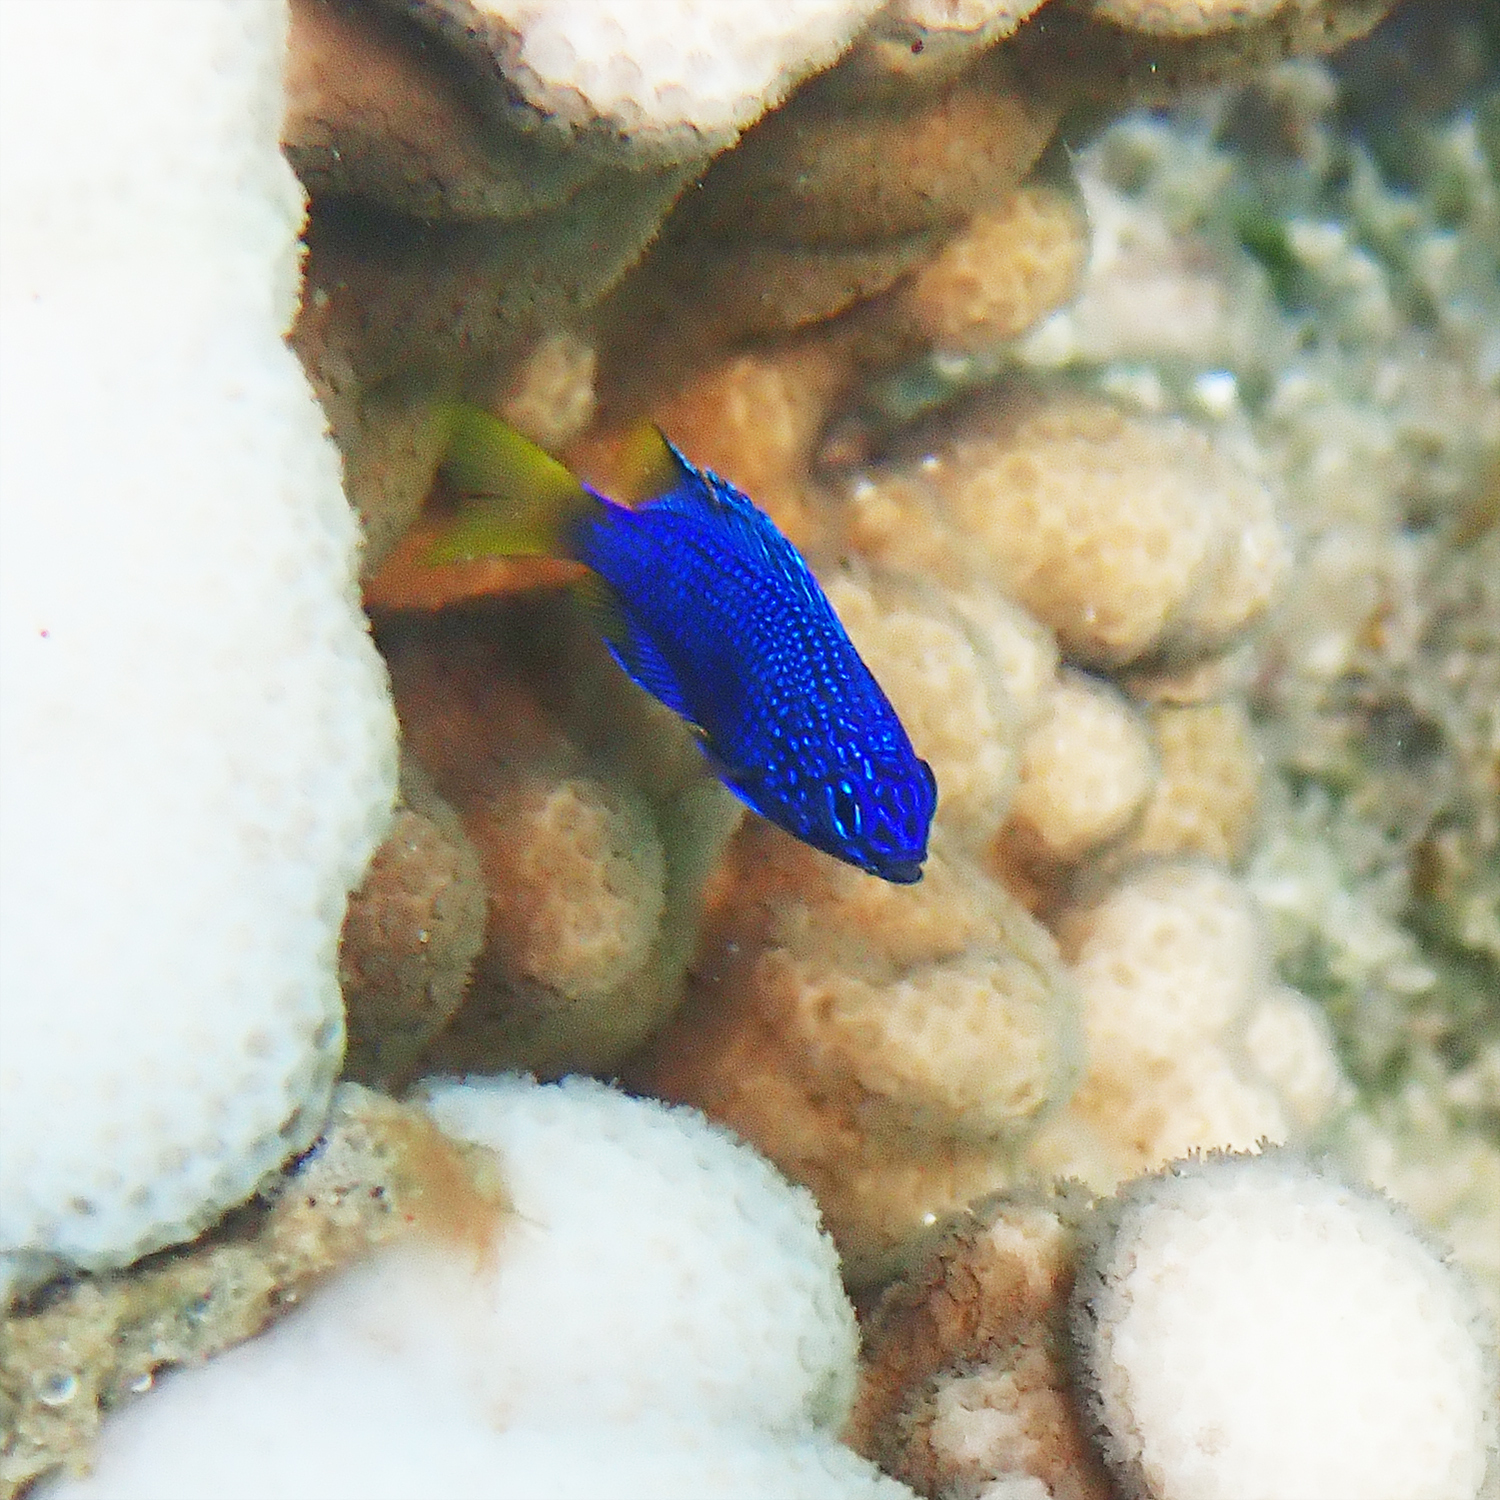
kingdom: Animalia
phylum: Chordata
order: Perciformes
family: Pomacentridae
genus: Pomacentrus
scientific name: Pomacentrus pavo
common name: Sapphire damsel
